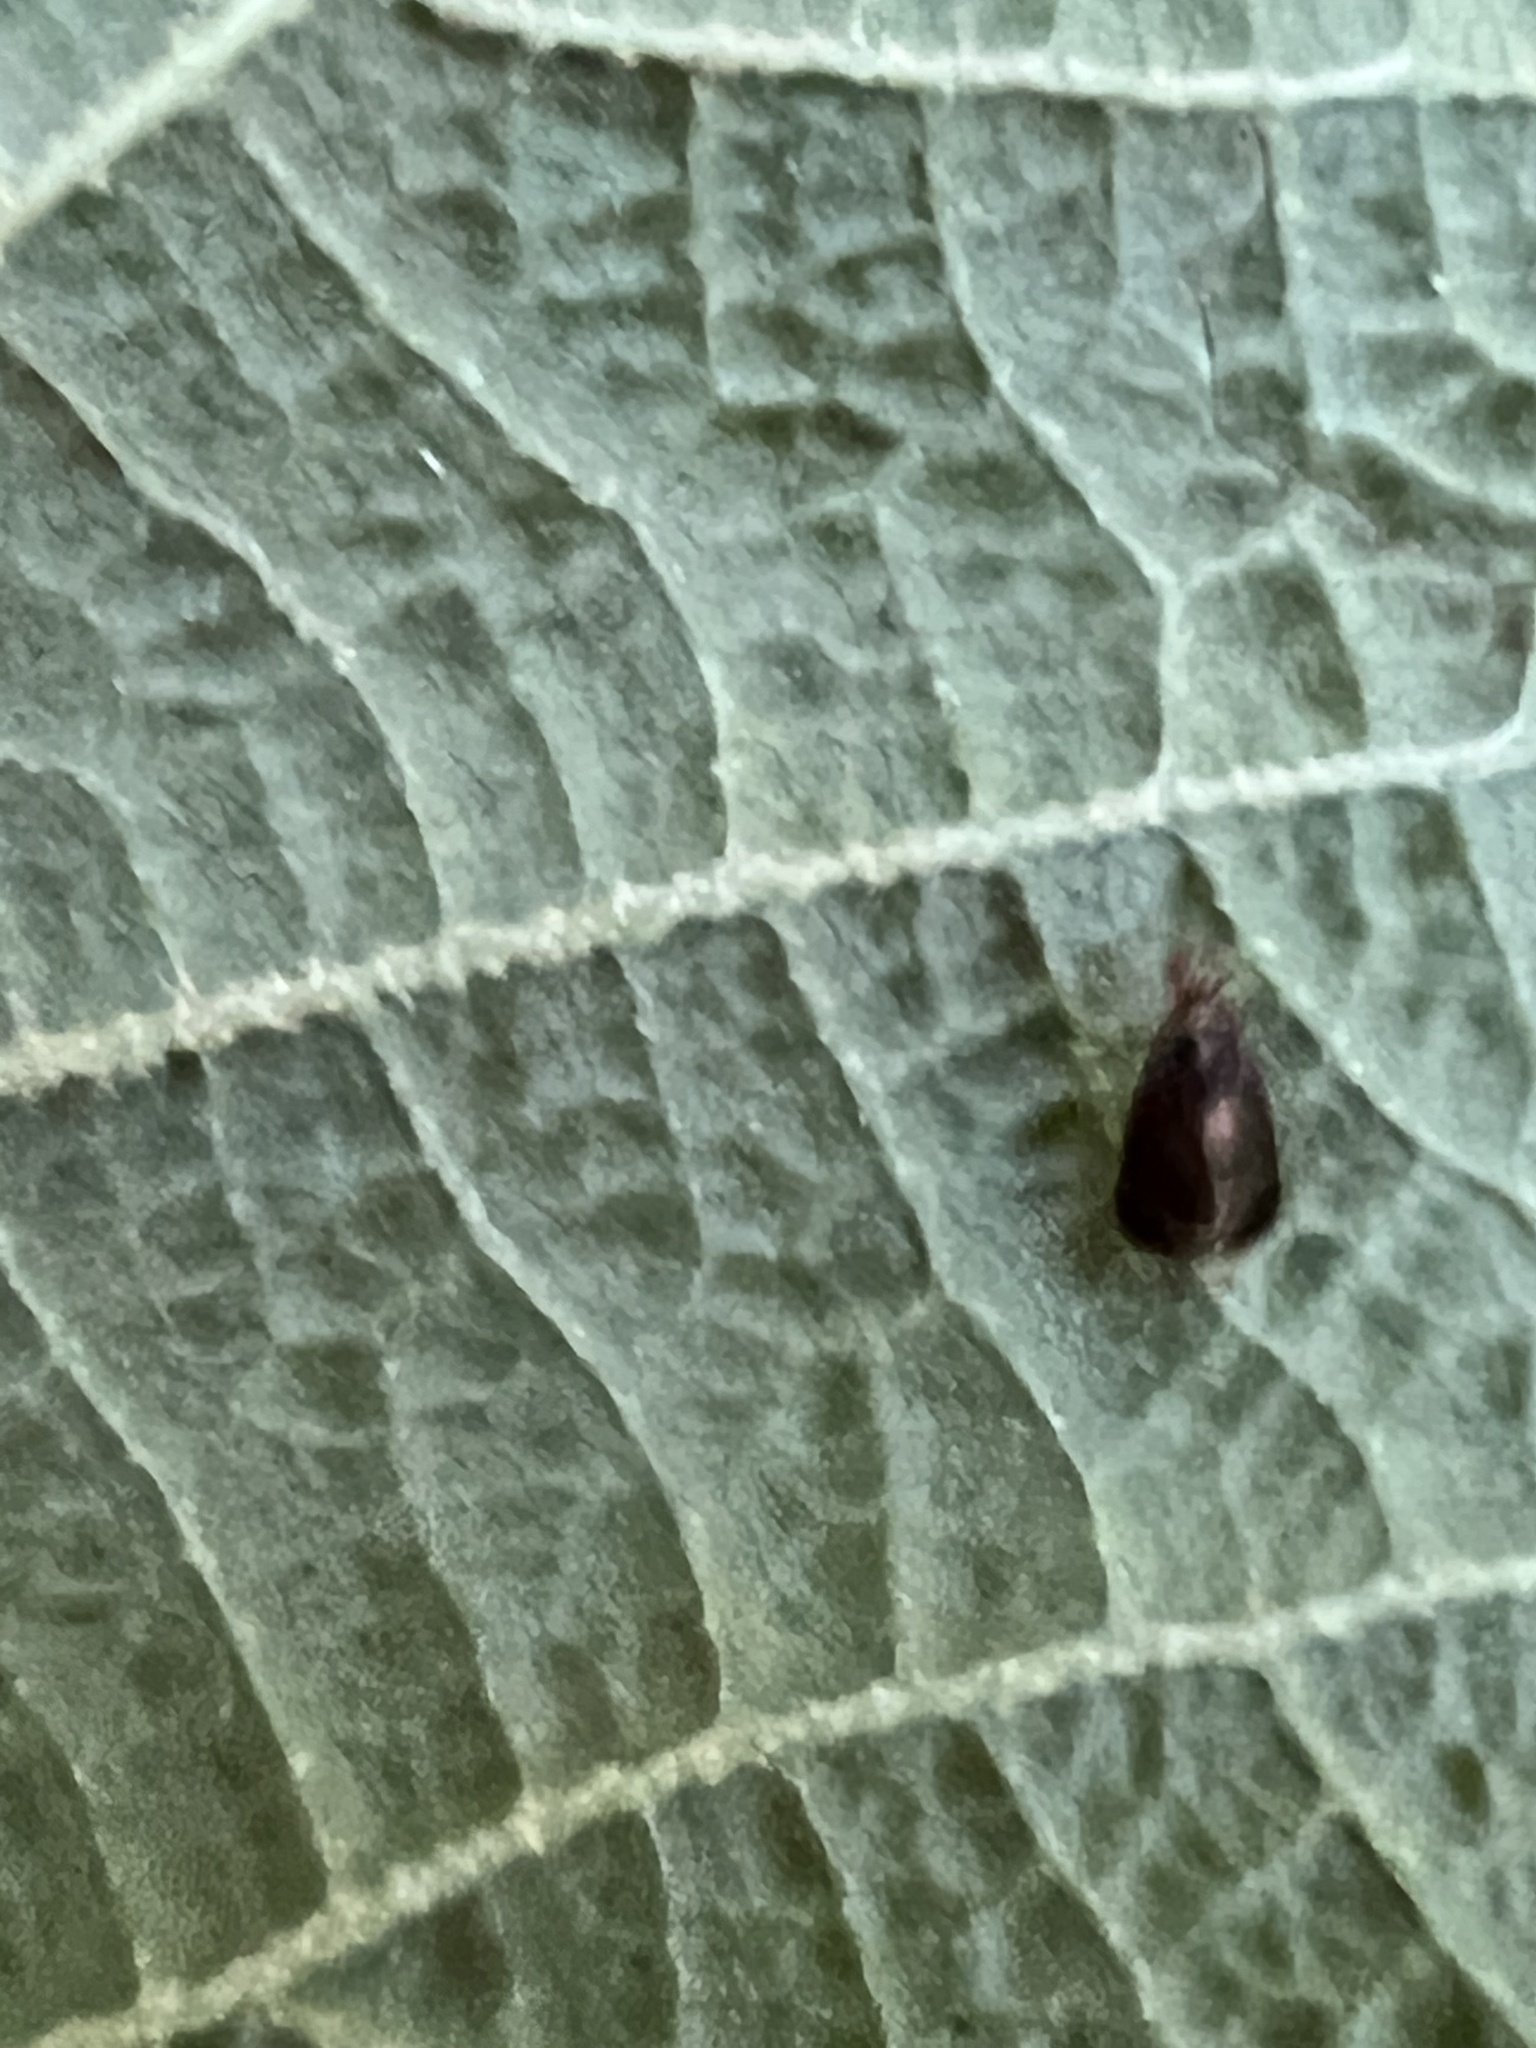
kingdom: Animalia
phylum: Arthropoda
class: Insecta
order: Psocodea
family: Amphipsocidae
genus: Polypsocus
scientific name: Polypsocus corruptus
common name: Corrupt barklouse
